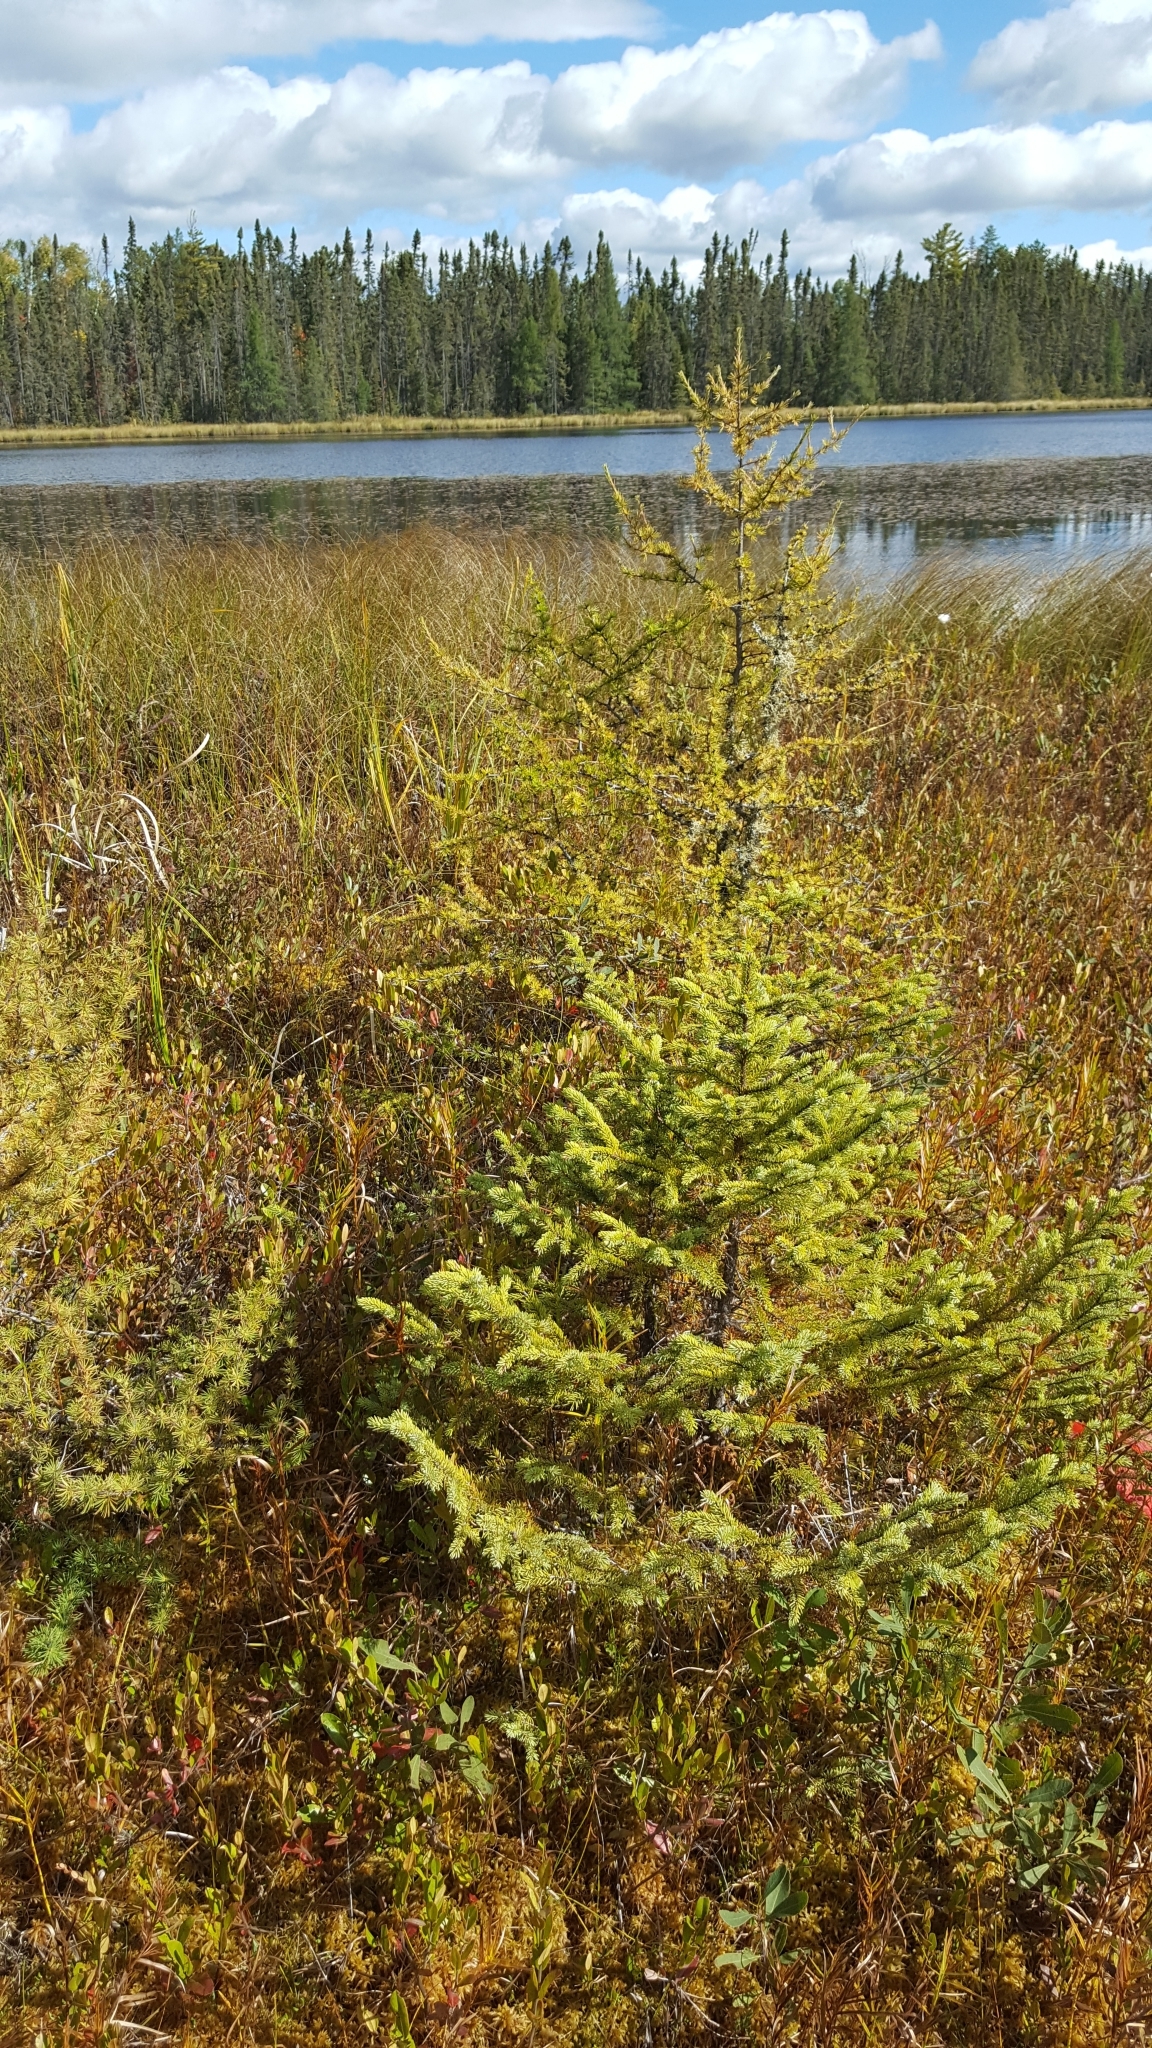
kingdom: Plantae
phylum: Tracheophyta
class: Pinopsida
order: Pinales
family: Pinaceae
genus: Picea
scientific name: Picea mariana
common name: Black spruce
